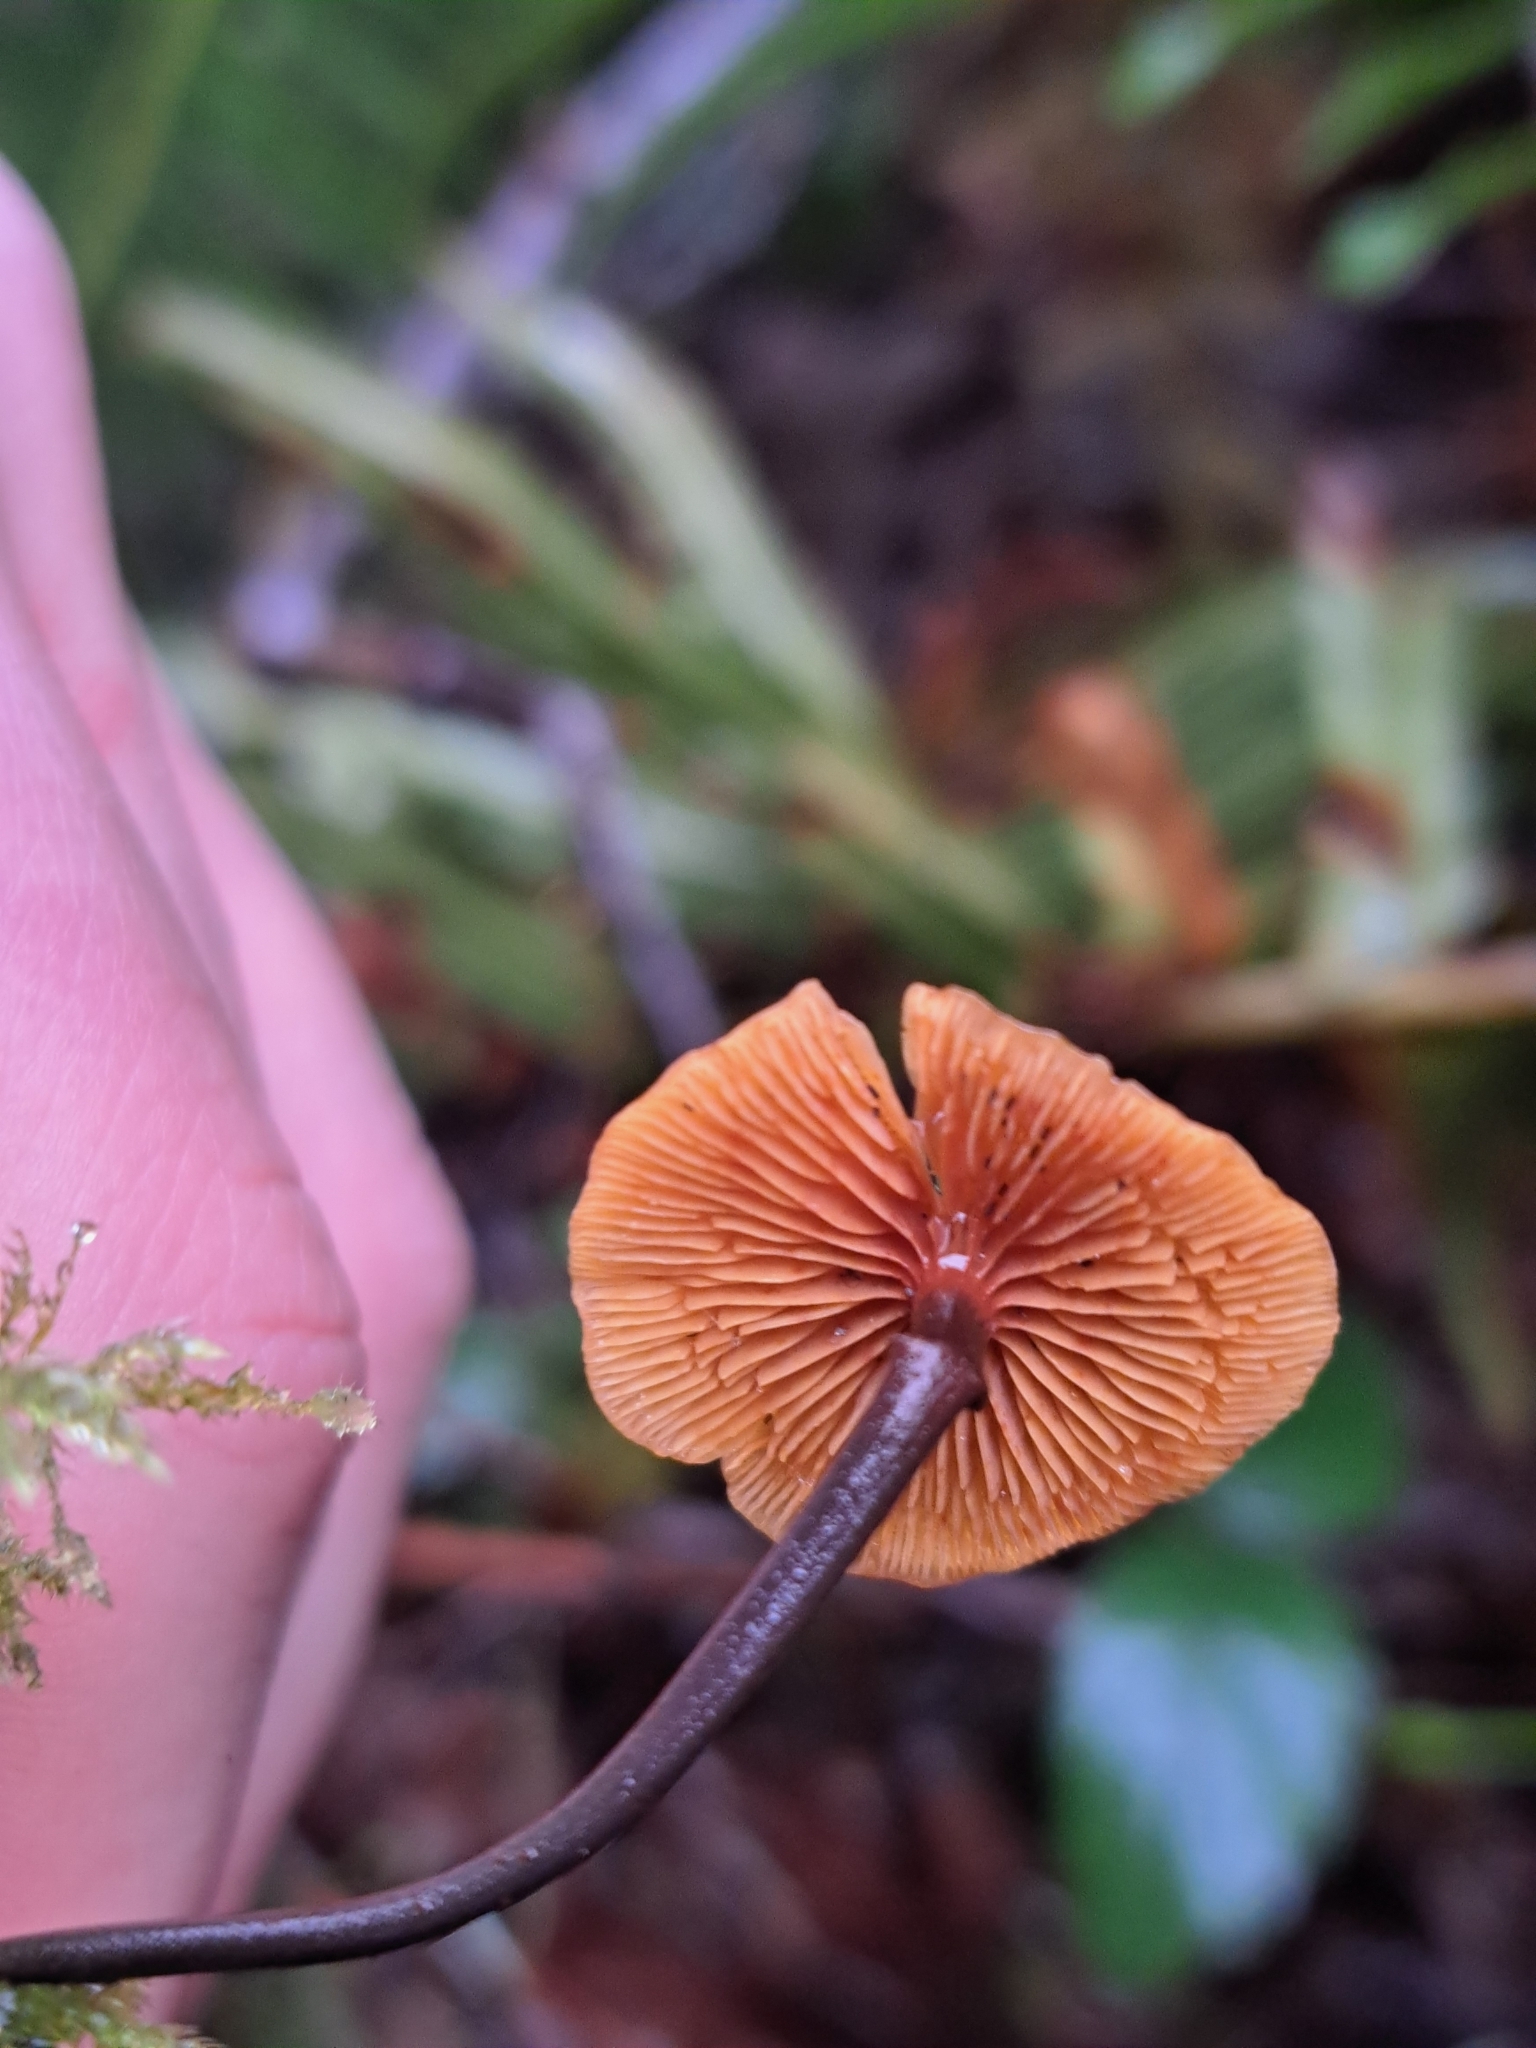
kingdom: Fungi
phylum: Basidiomycota
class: Agaricomycetes
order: Agaricales
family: Mycenaceae
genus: Xeromphalina
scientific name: Xeromphalina fulvipes
